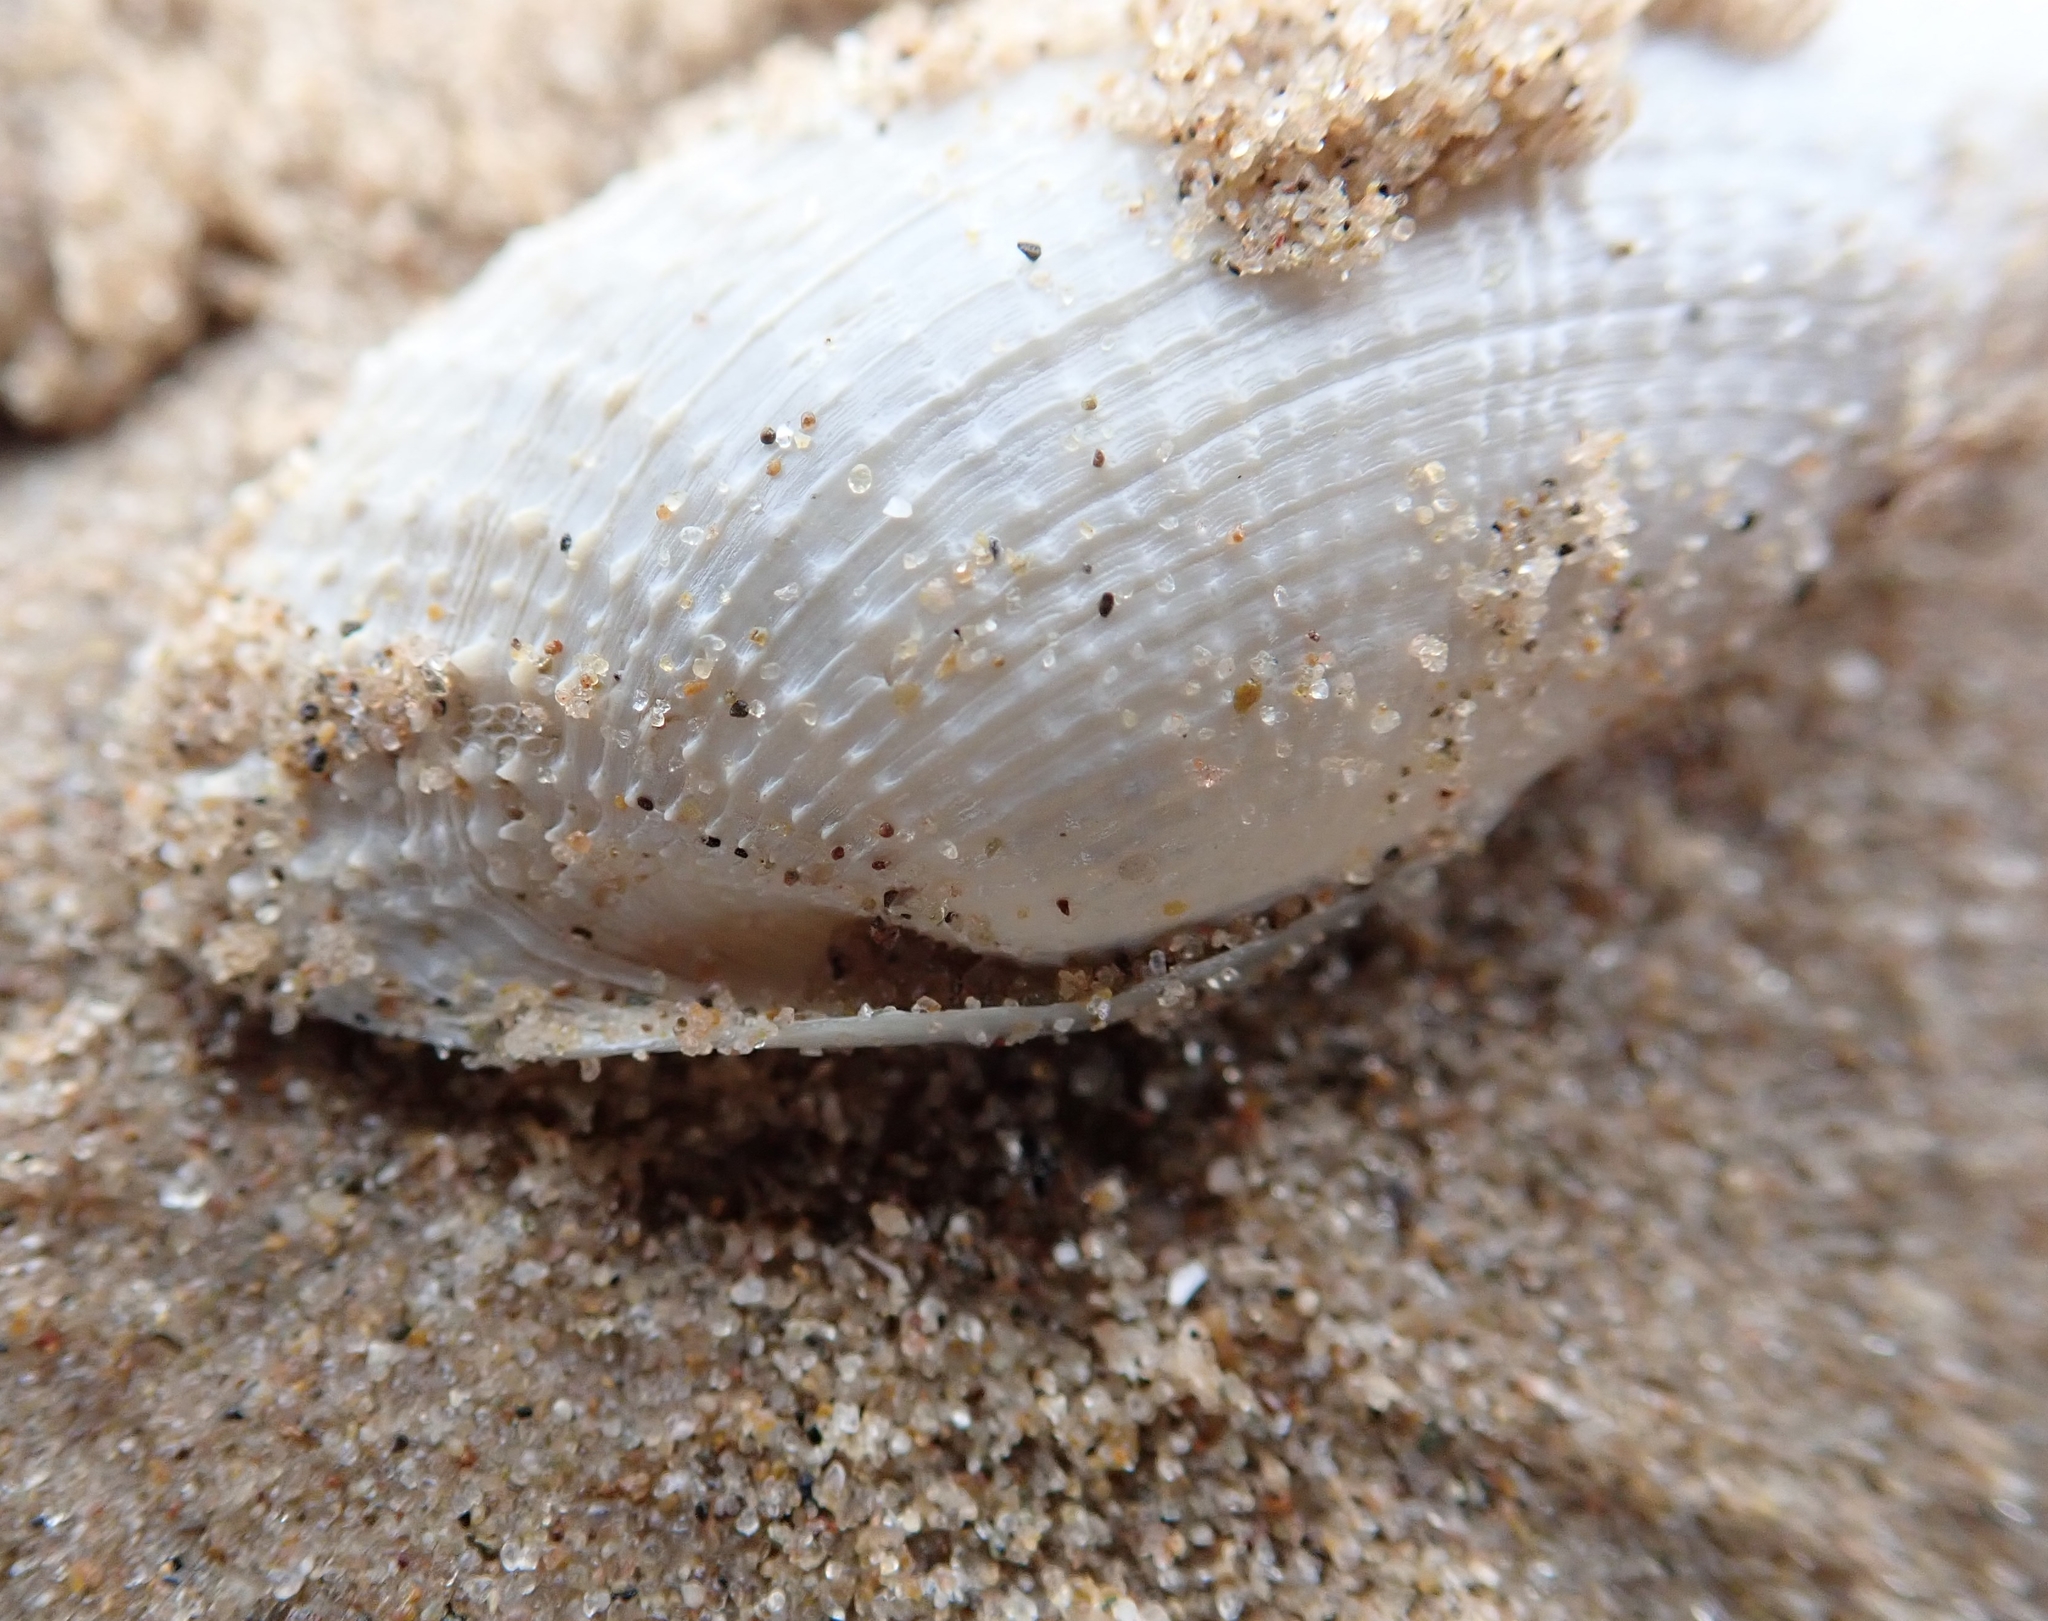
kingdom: Animalia
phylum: Mollusca
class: Bivalvia
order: Myida
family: Pholadidae
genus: Barnea
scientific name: Barnea candida
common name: White piddock
